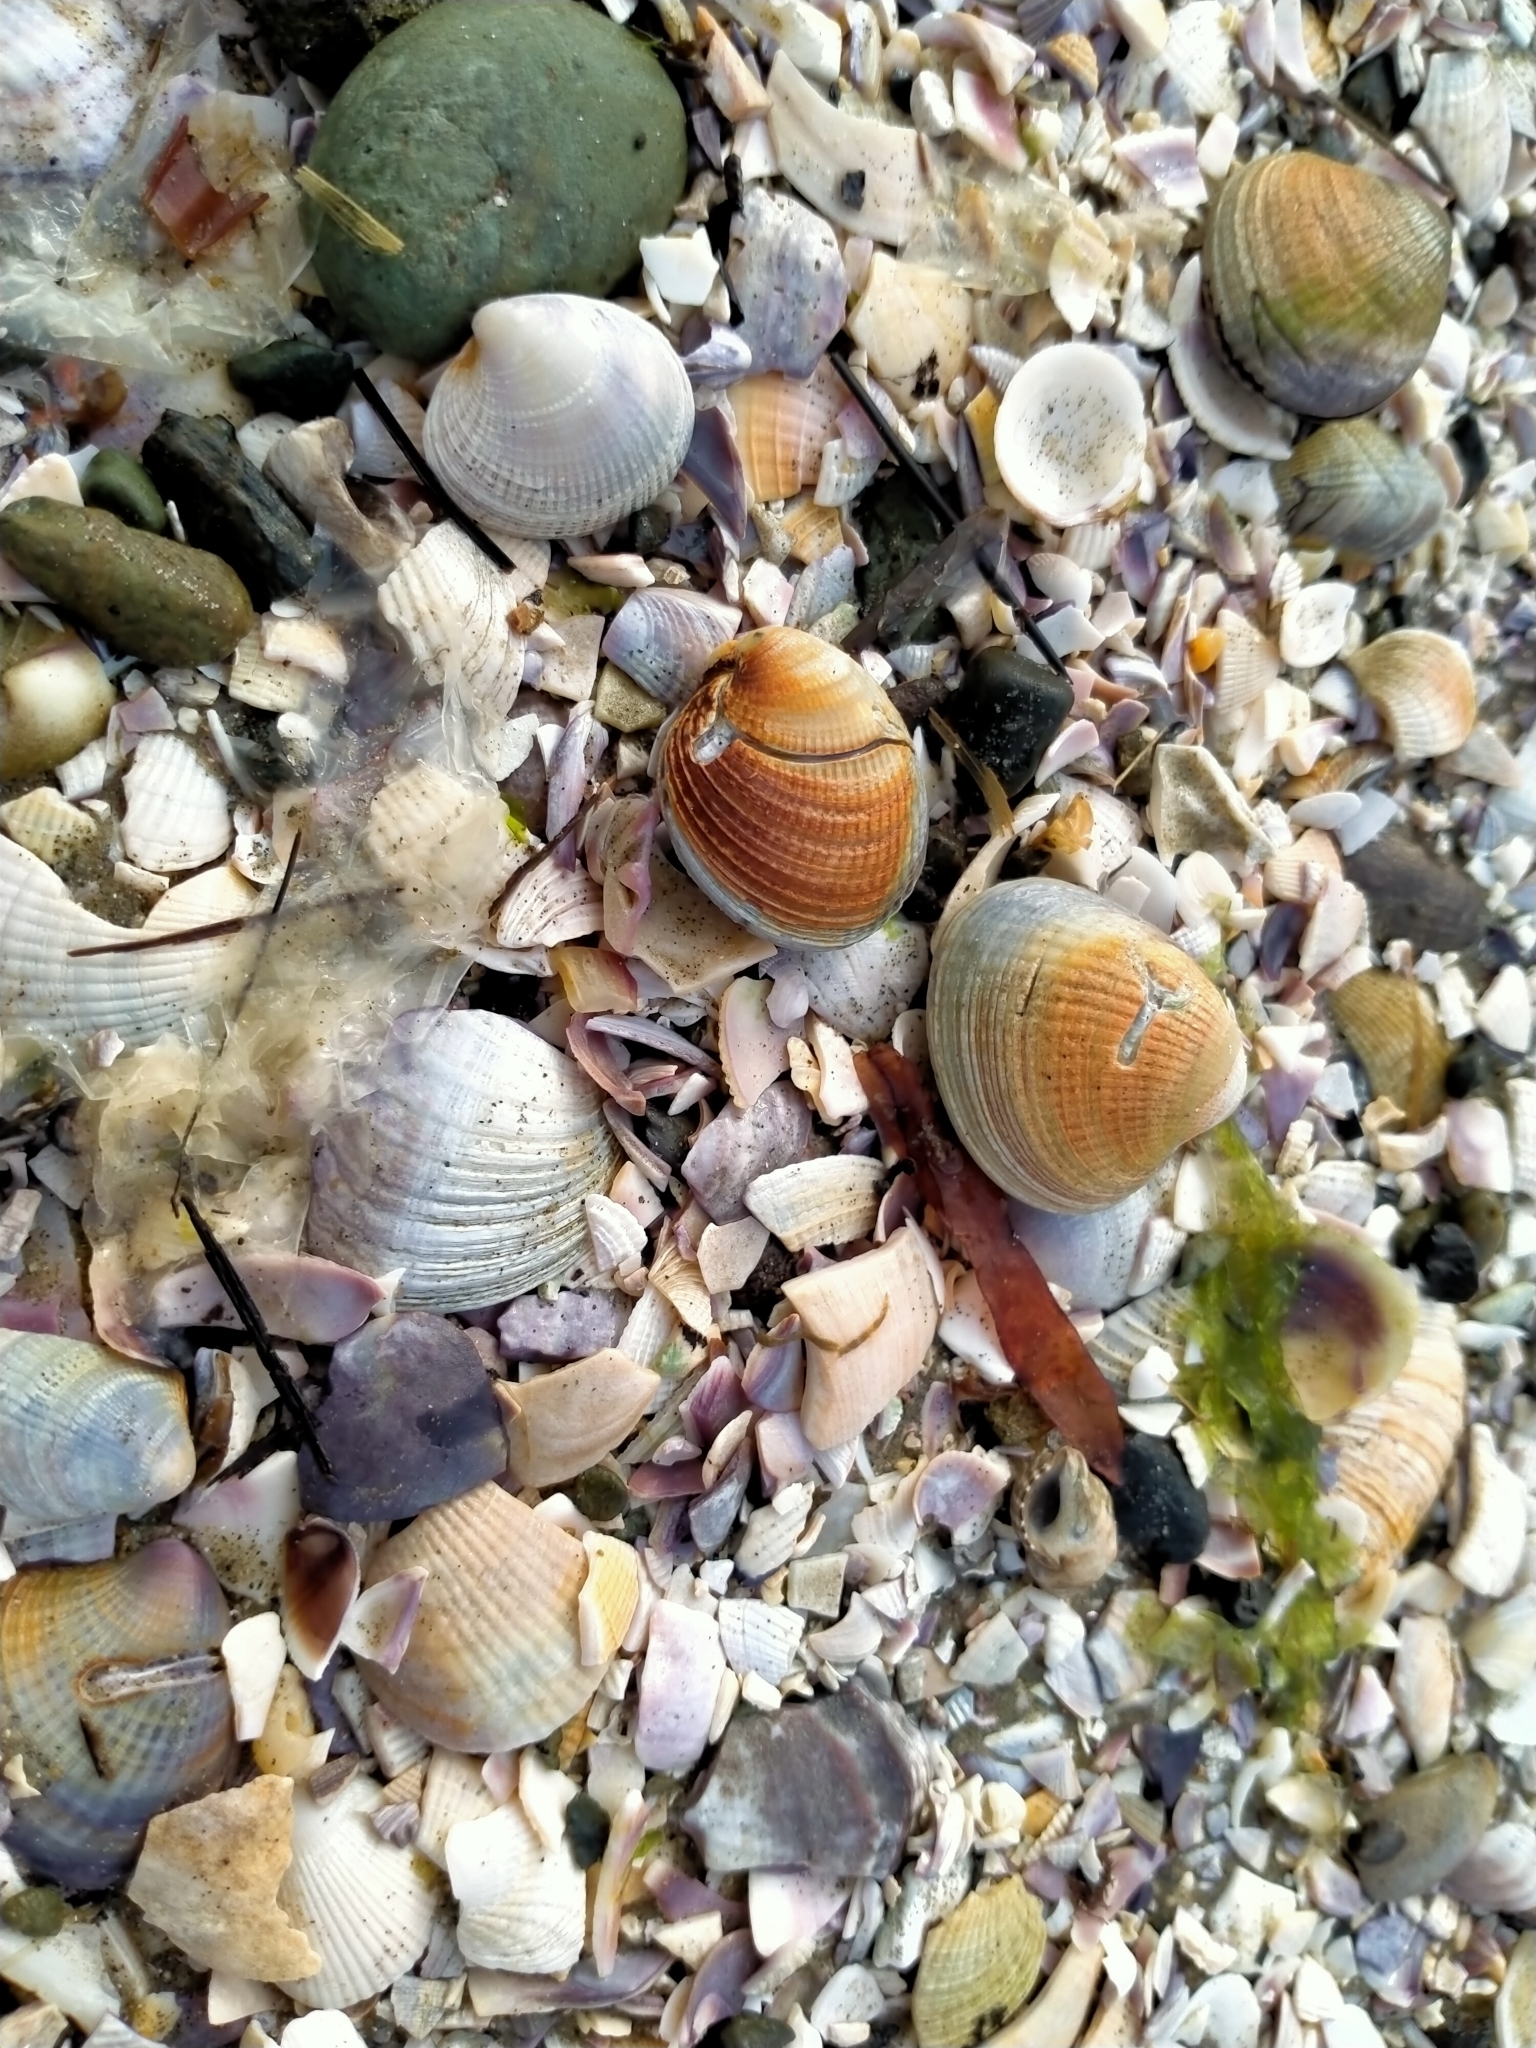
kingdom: Animalia
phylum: Mollusca
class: Bivalvia
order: Venerida
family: Veneridae
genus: Austrovenus
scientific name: Austrovenus stutchburyi
